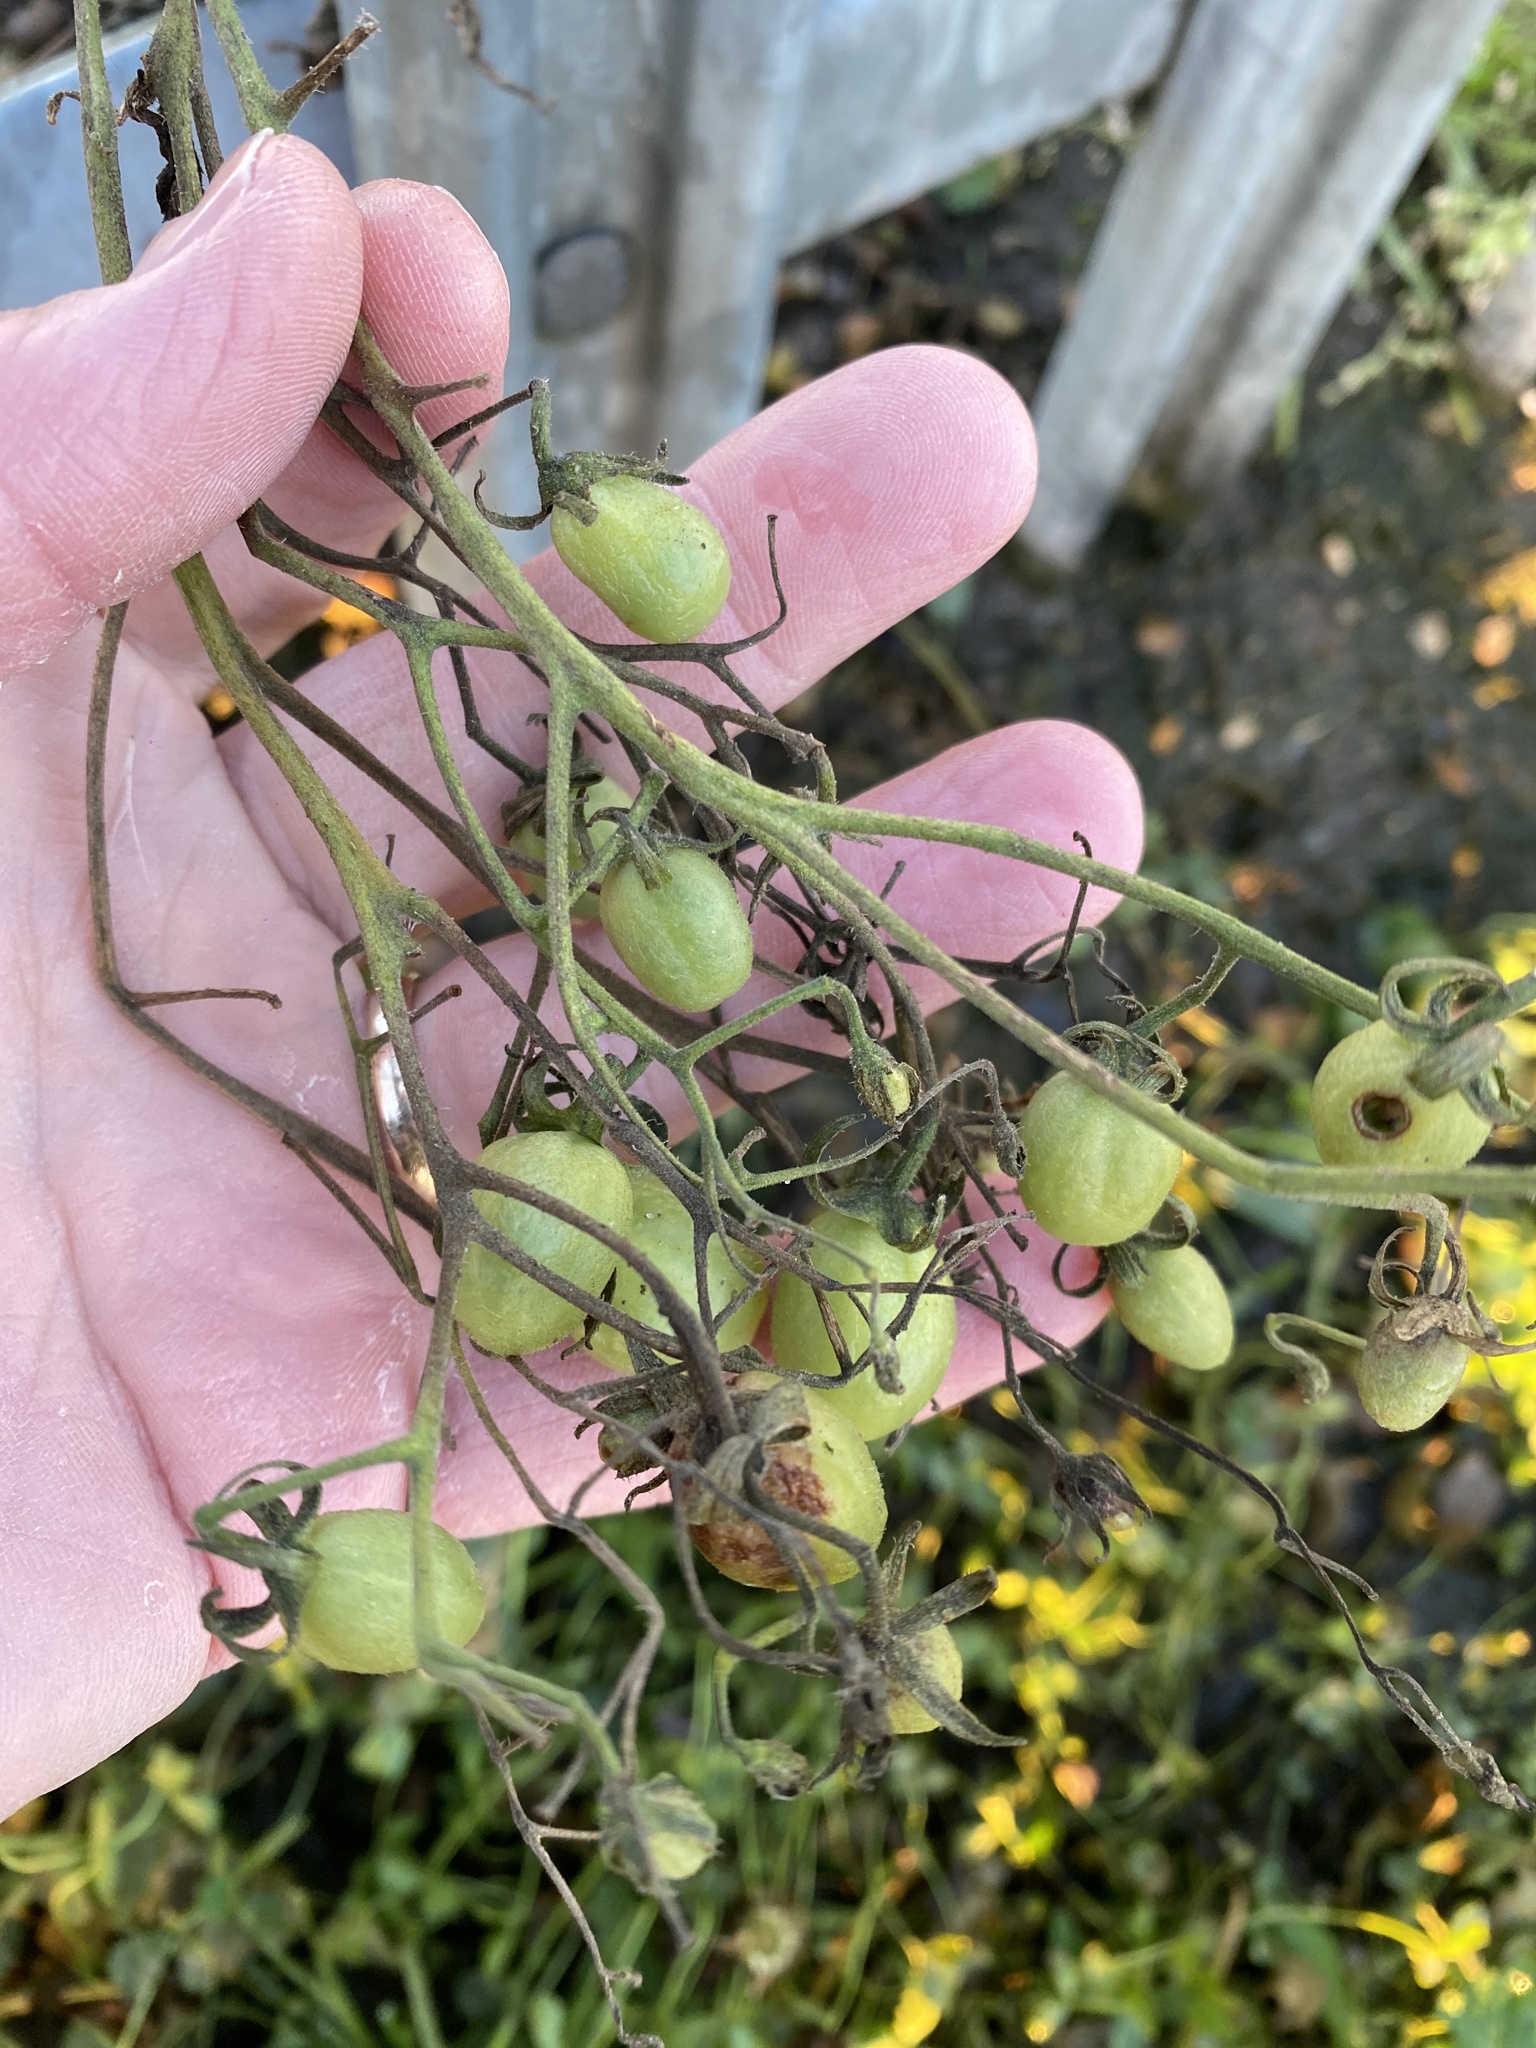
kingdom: Plantae
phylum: Tracheophyta
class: Magnoliopsida
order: Solanales
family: Solanaceae
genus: Solanum
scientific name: Solanum lycopersicum
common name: Garden tomato
